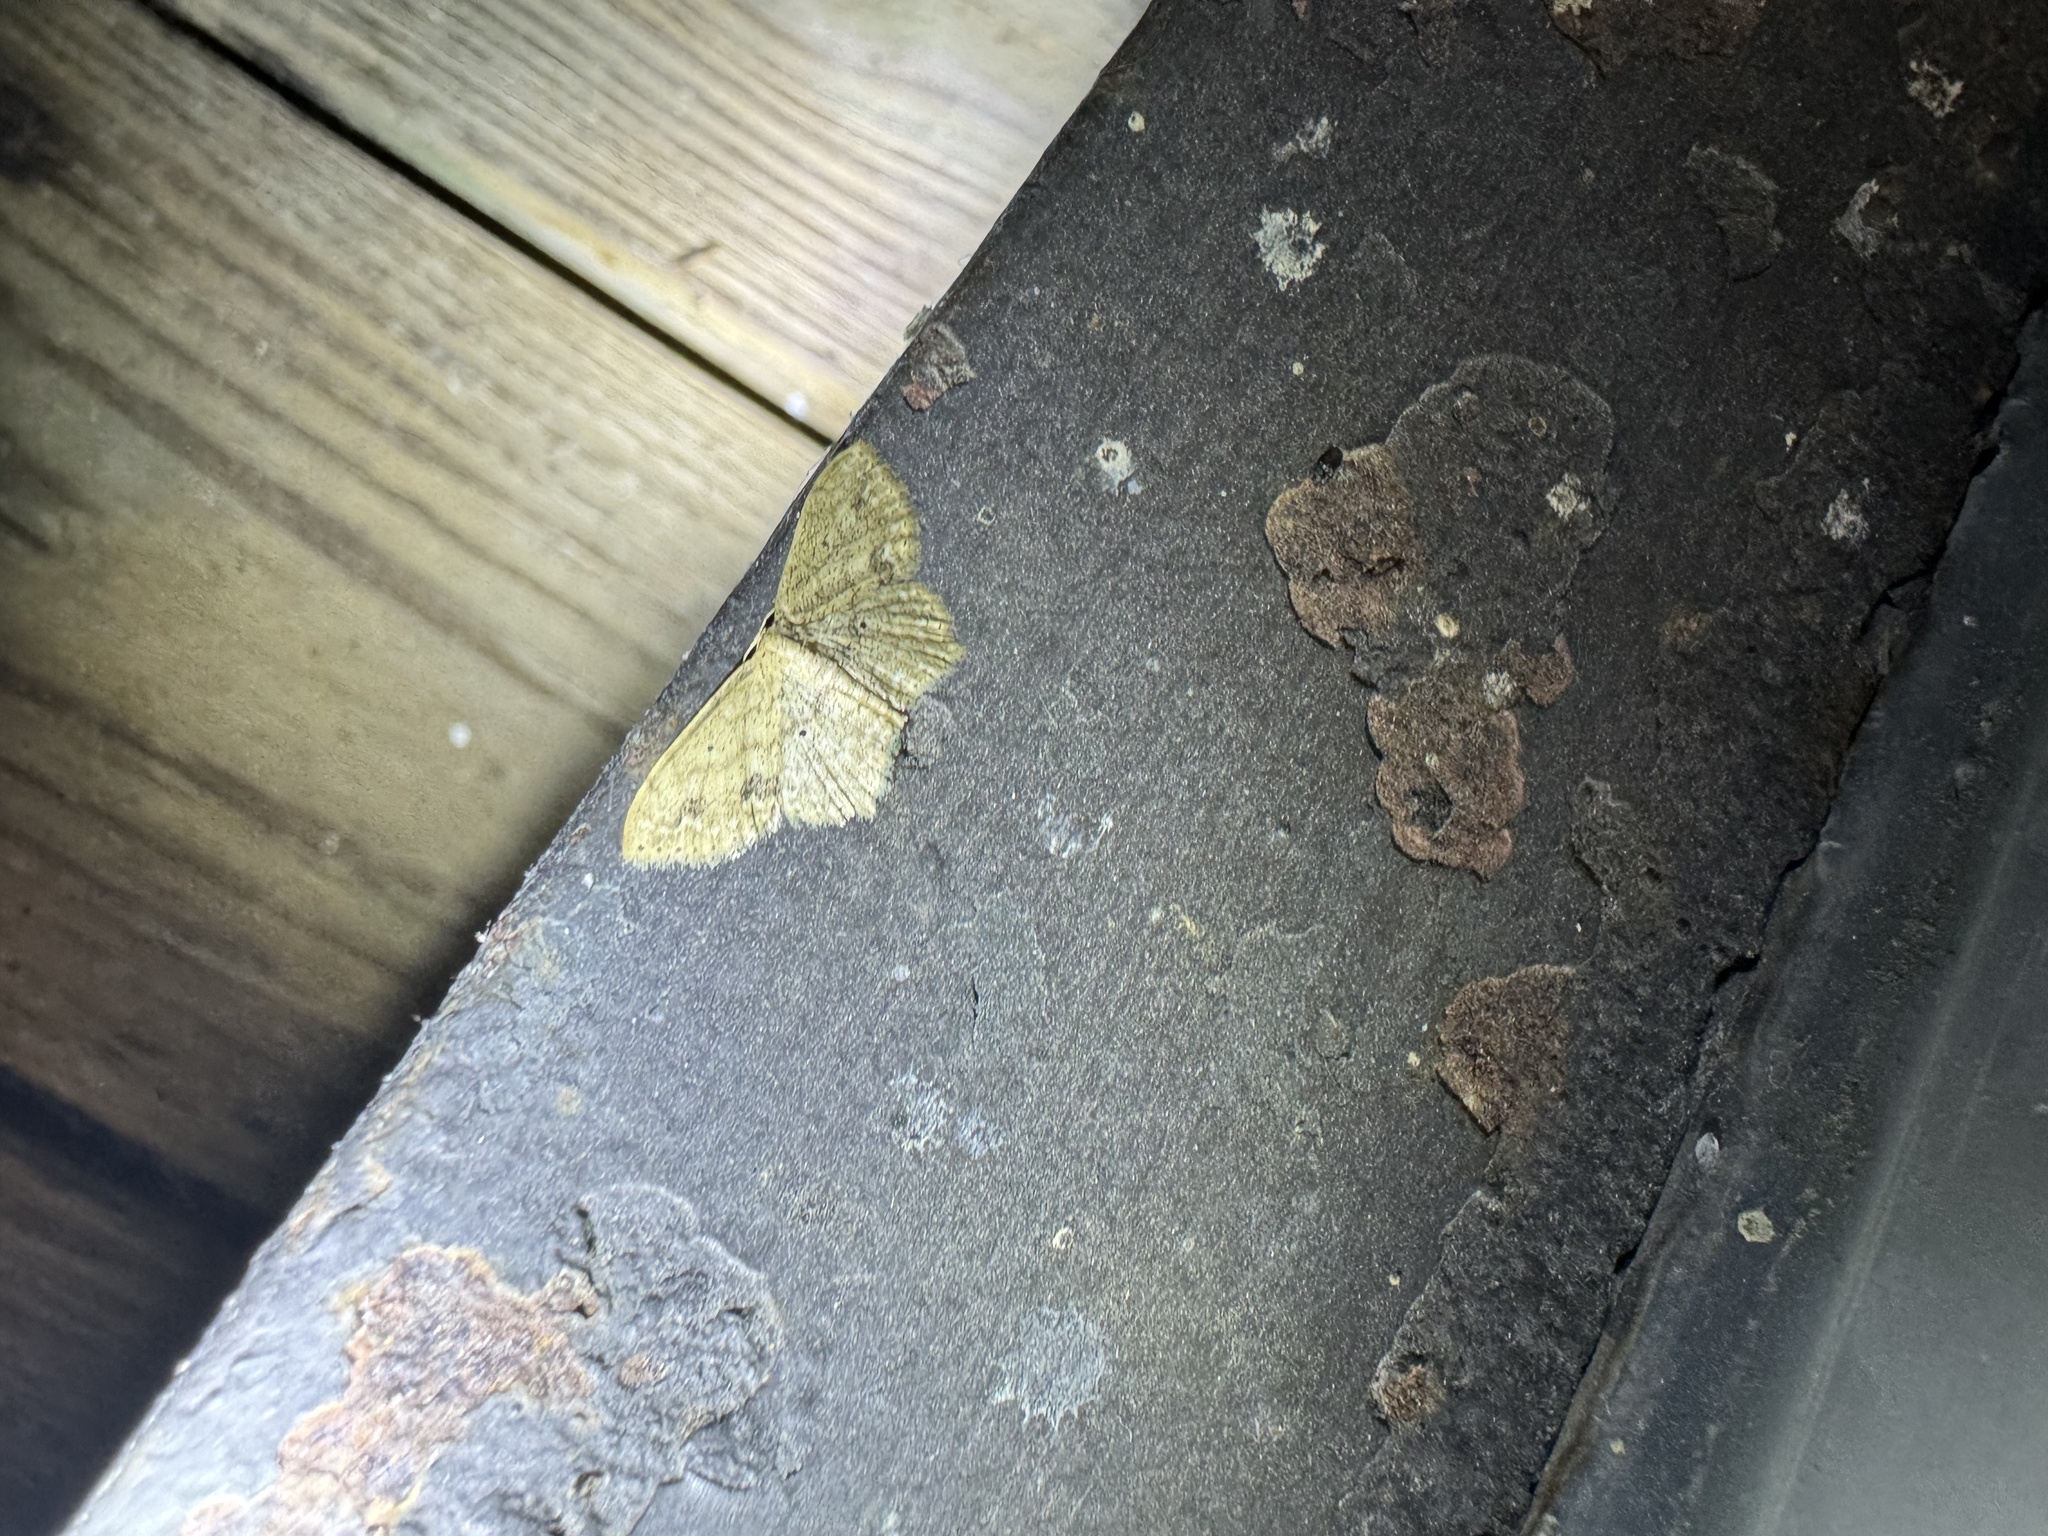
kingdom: Animalia
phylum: Arthropoda
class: Insecta
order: Lepidoptera
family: Geometridae
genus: Scopula
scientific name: Scopula compensata
